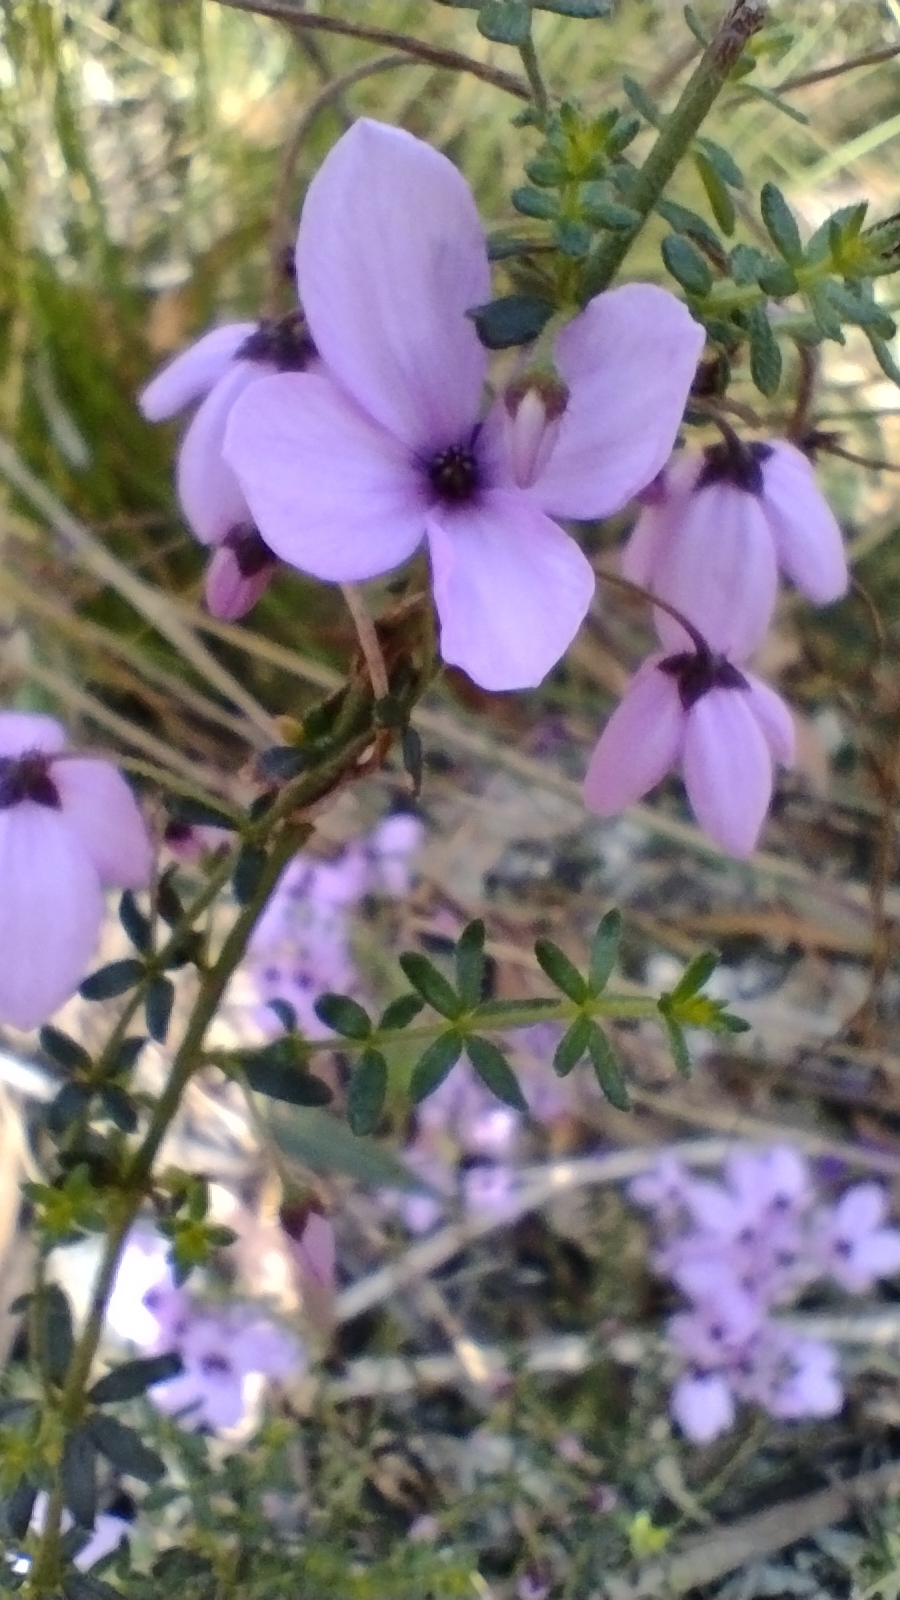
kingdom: Plantae
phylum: Tracheophyta
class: Magnoliopsida
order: Oxalidales
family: Elaeocarpaceae
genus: Tetratheca
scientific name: Tetratheca thymifolia
